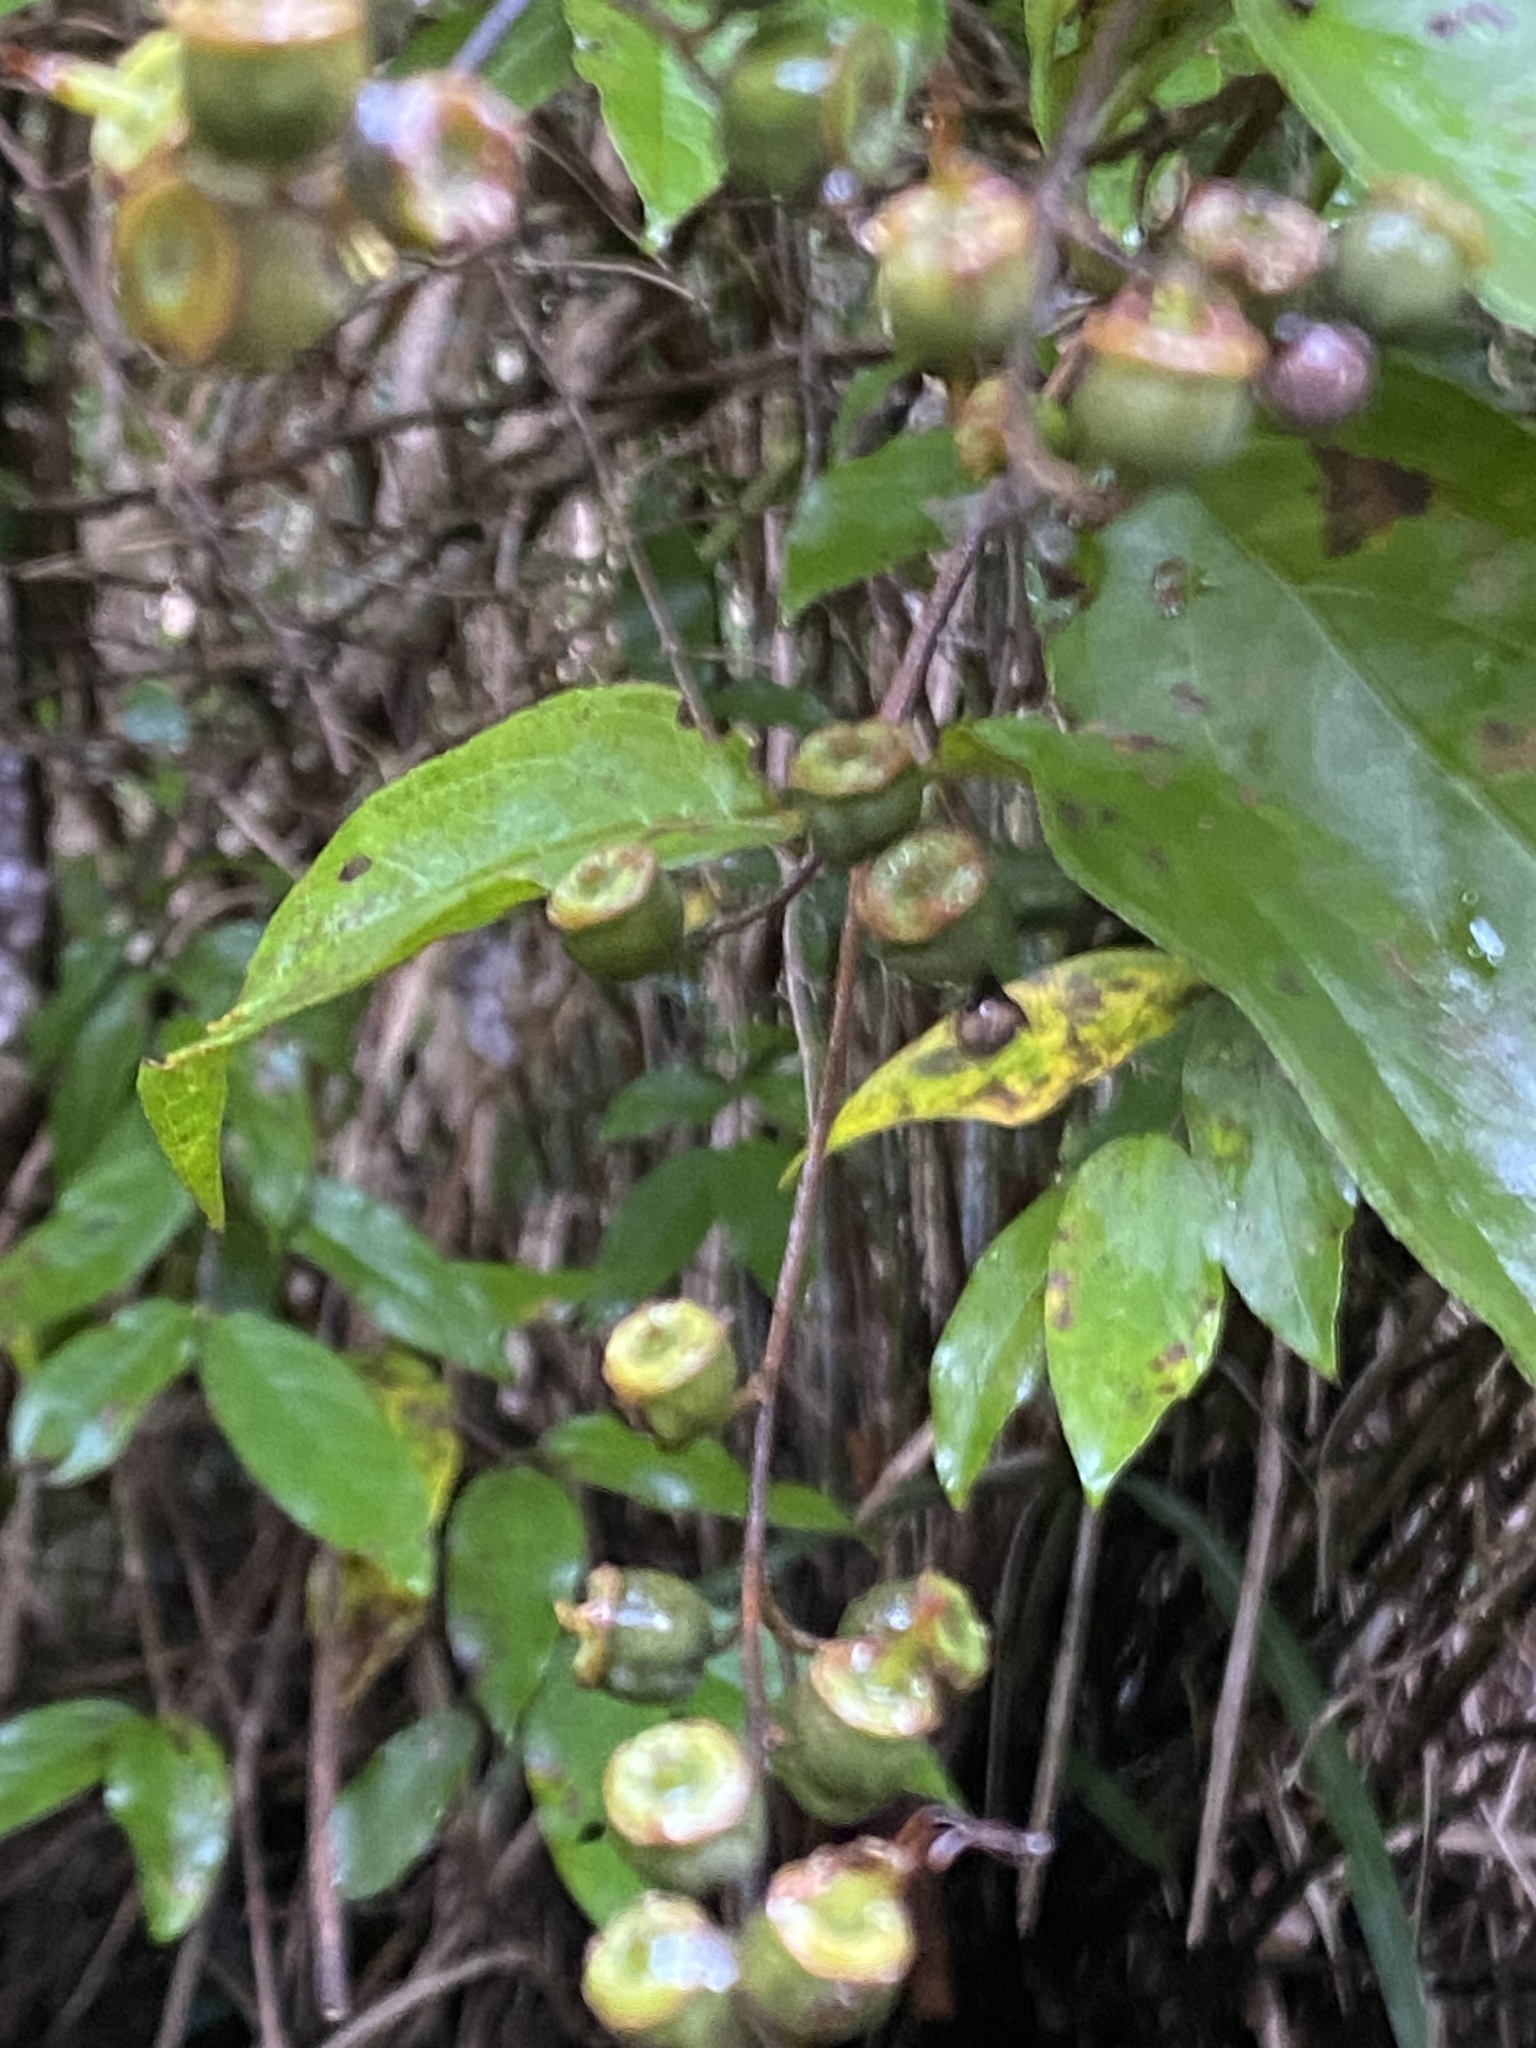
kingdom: Plantae
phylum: Tracheophyta
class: Magnoliopsida
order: Cornales
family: Hydrangeaceae
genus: Deutzia
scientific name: Deutzia pulchra
